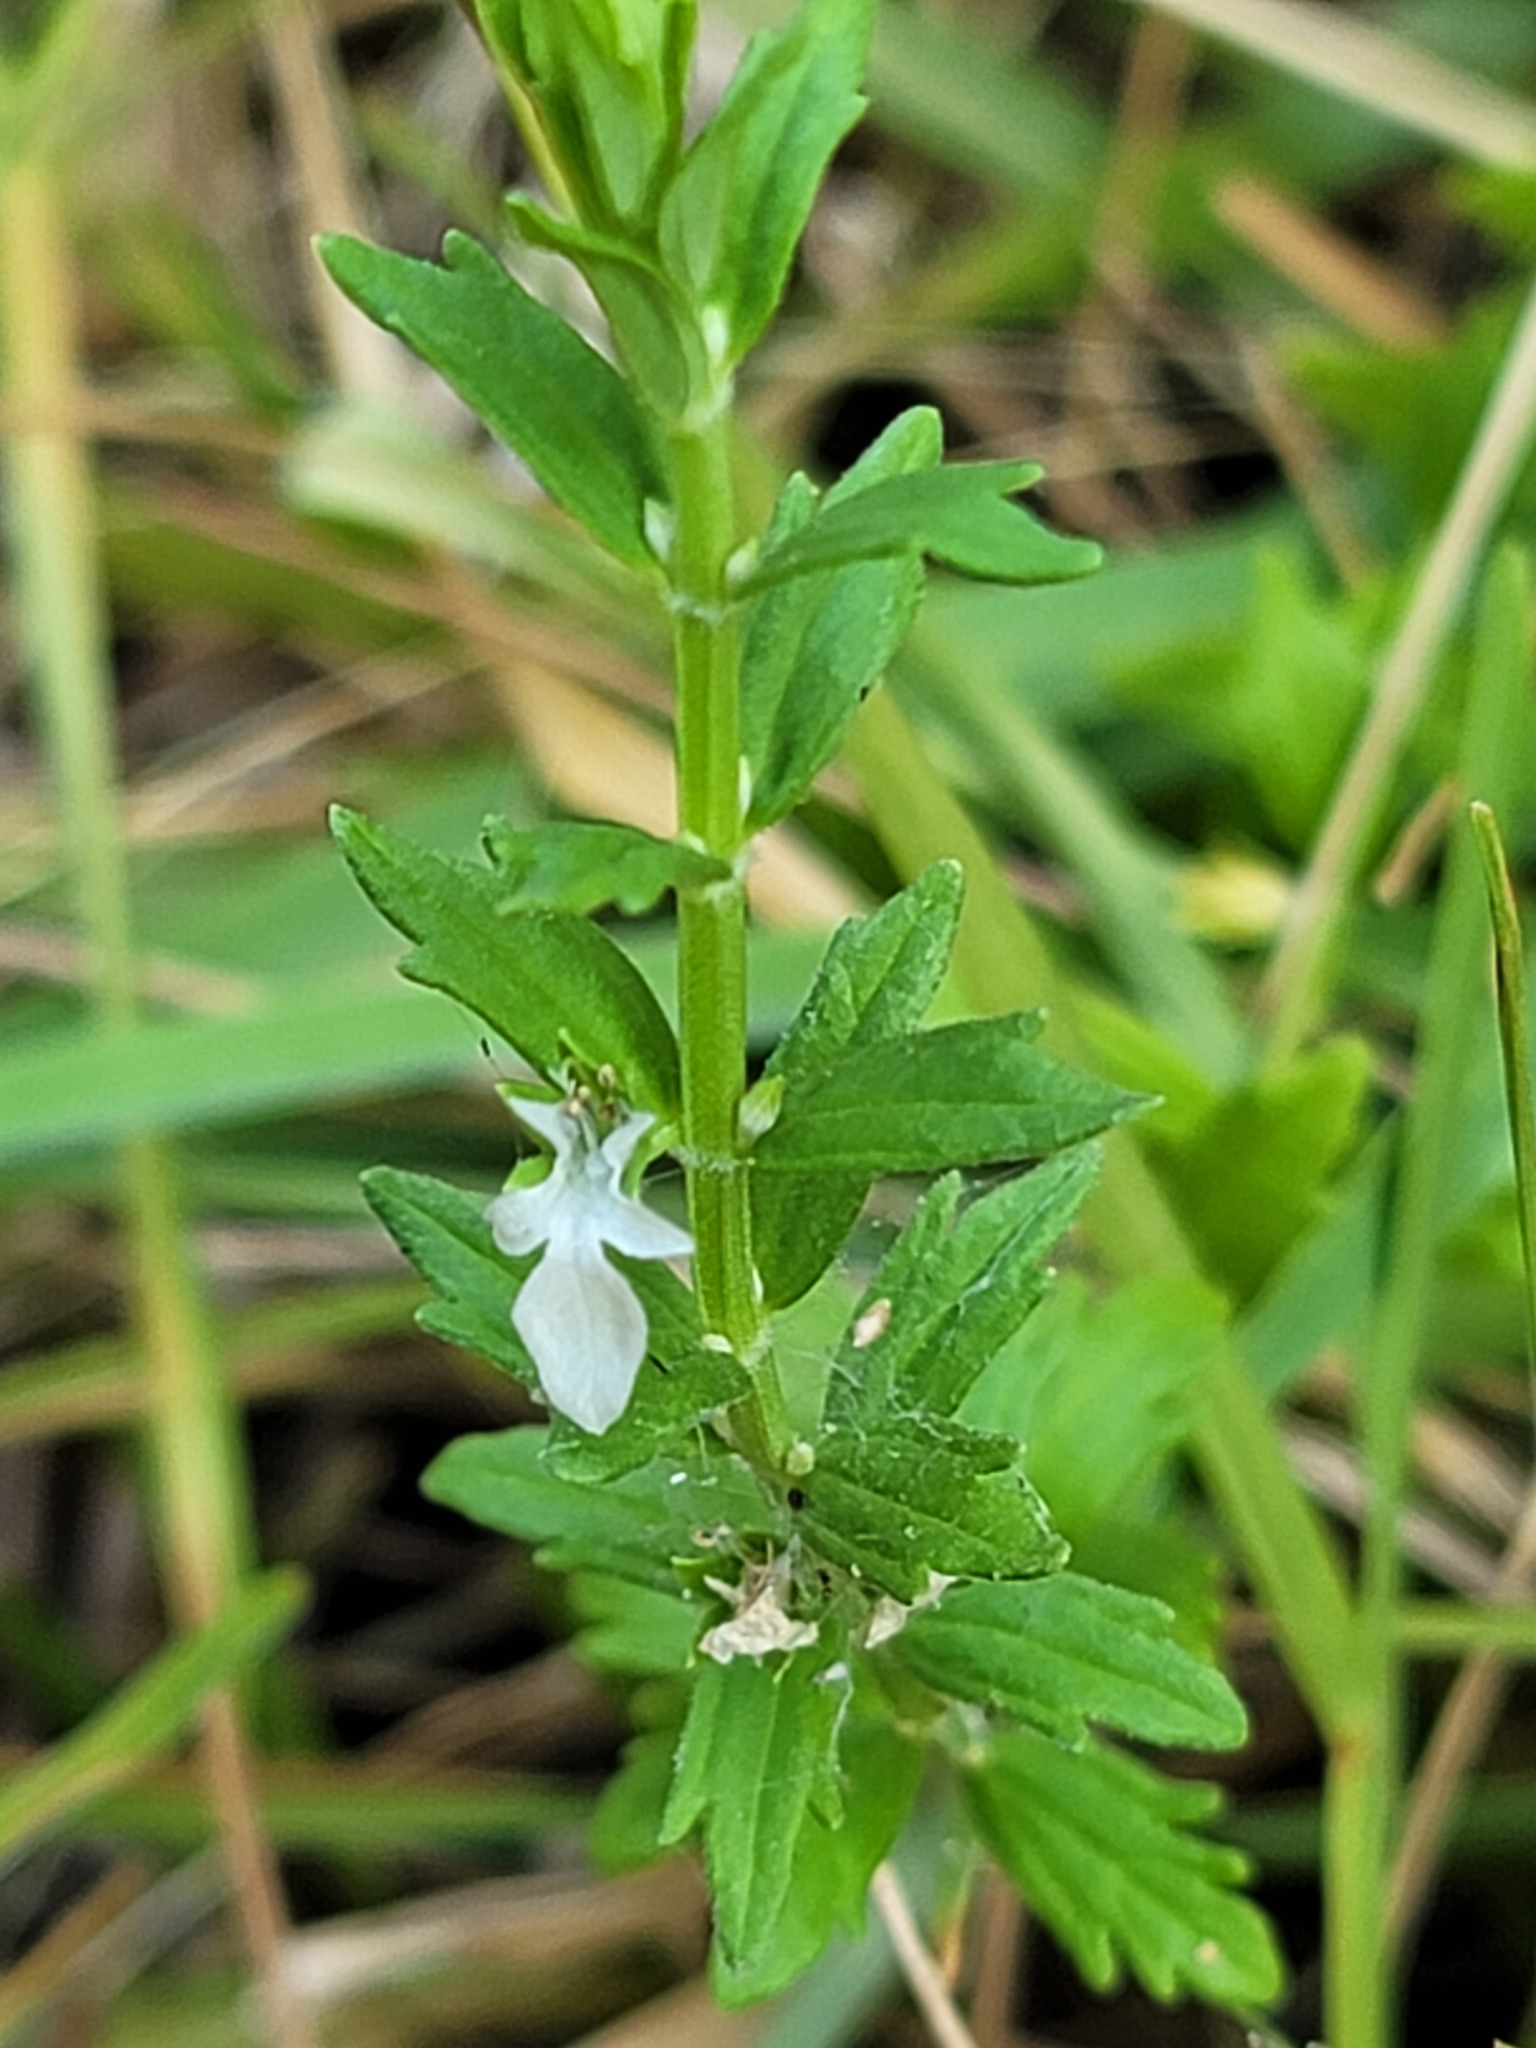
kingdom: Plantae
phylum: Tracheophyta
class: Magnoliopsida
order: Lamiales
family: Lamiaceae
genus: Teucrium
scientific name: Teucrium cubense
